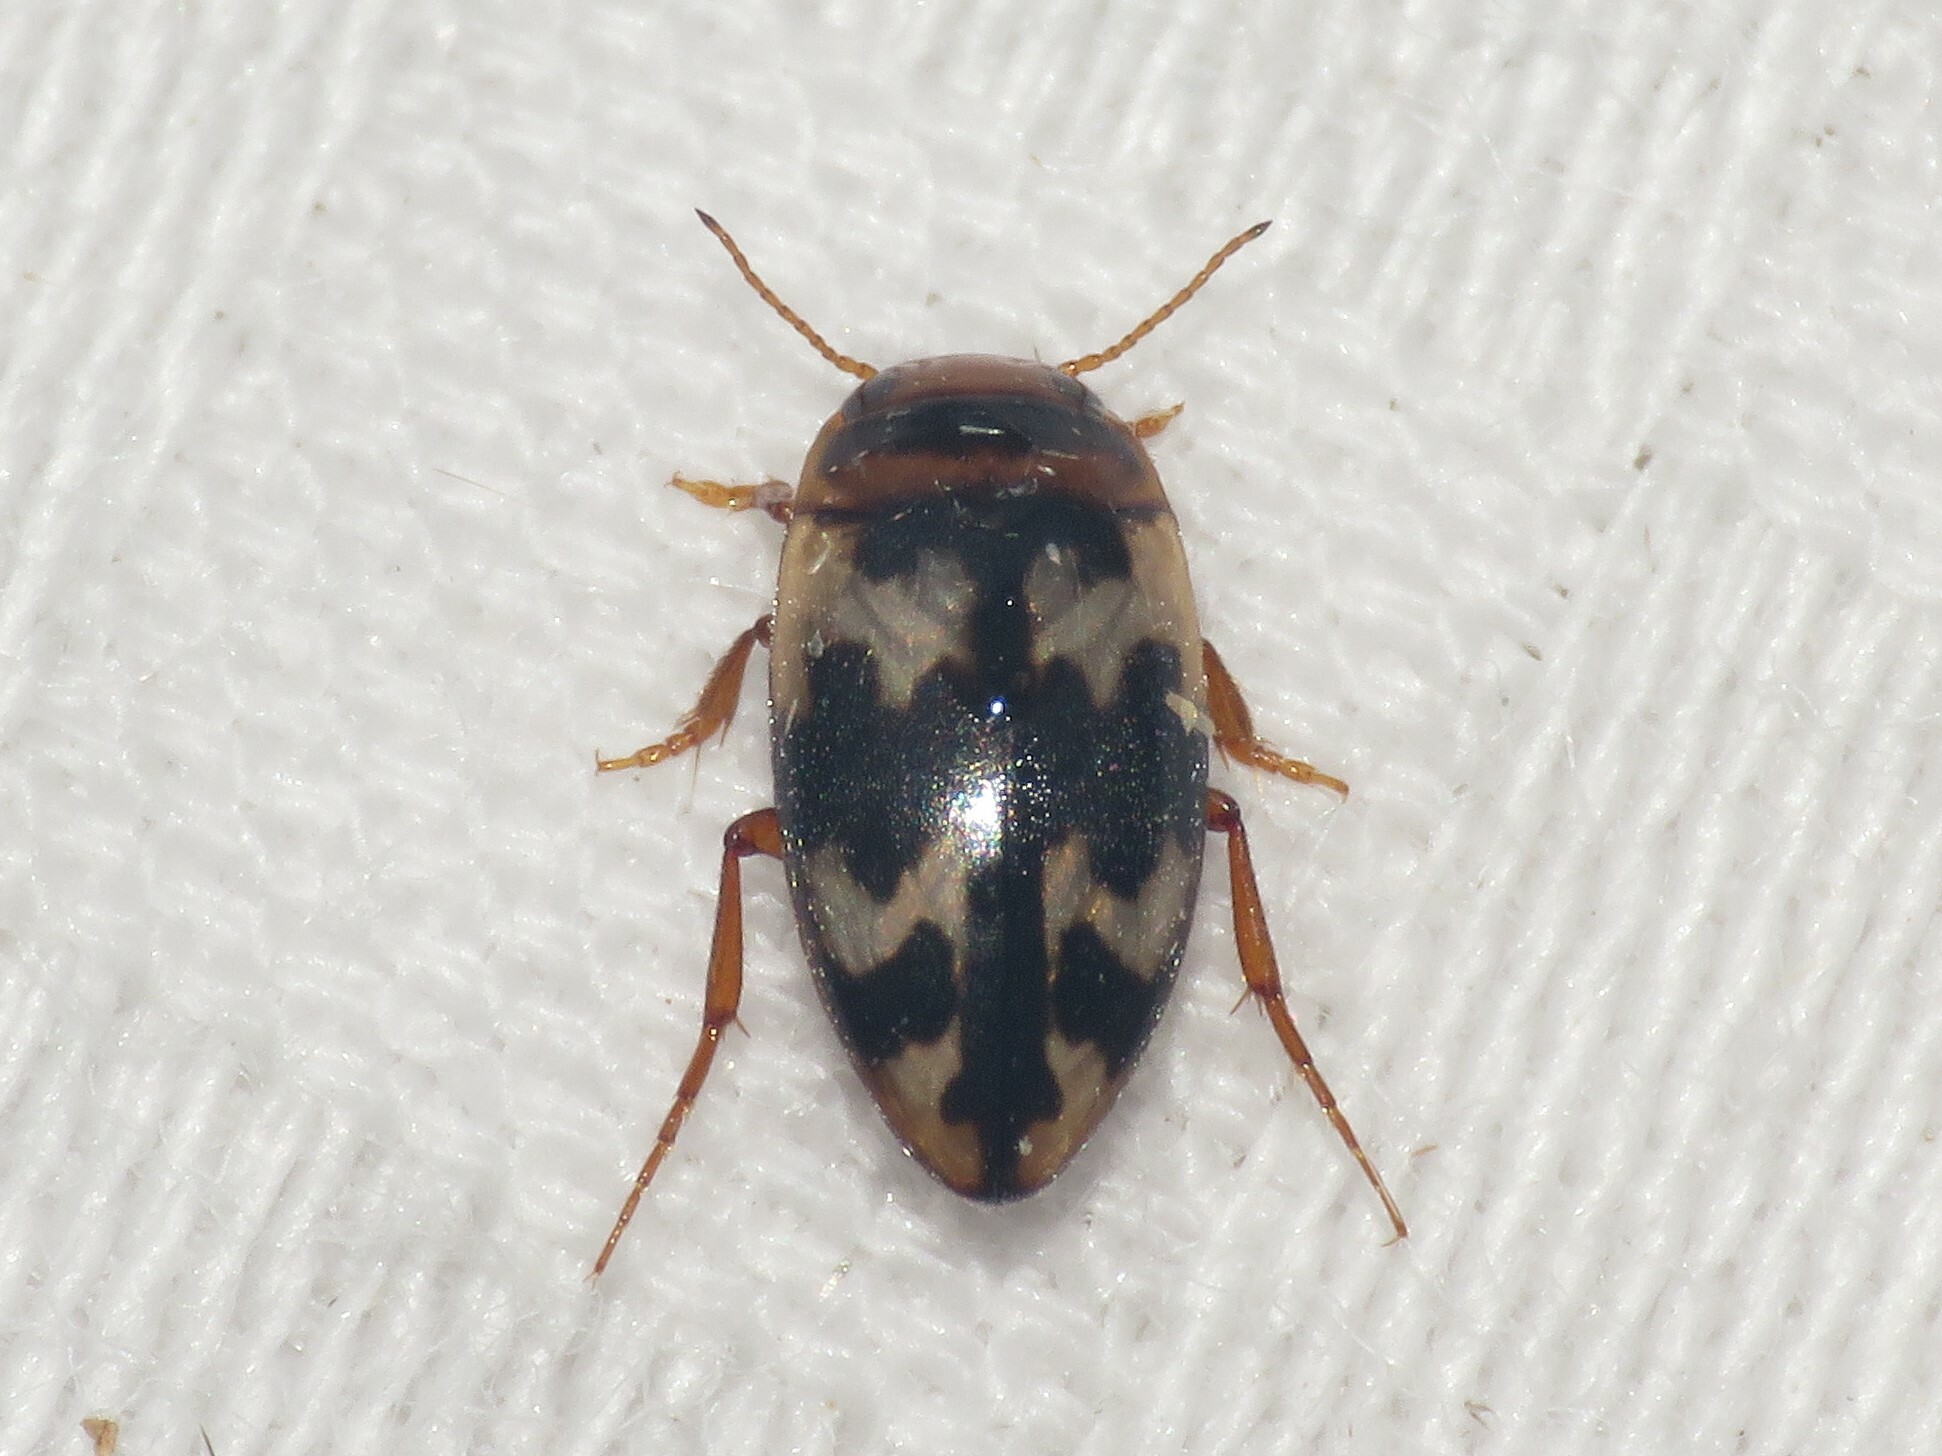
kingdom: Animalia
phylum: Arthropoda
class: Insecta
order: Coleoptera
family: Dytiscidae
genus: Heterosternuta
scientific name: Heterosternuta
